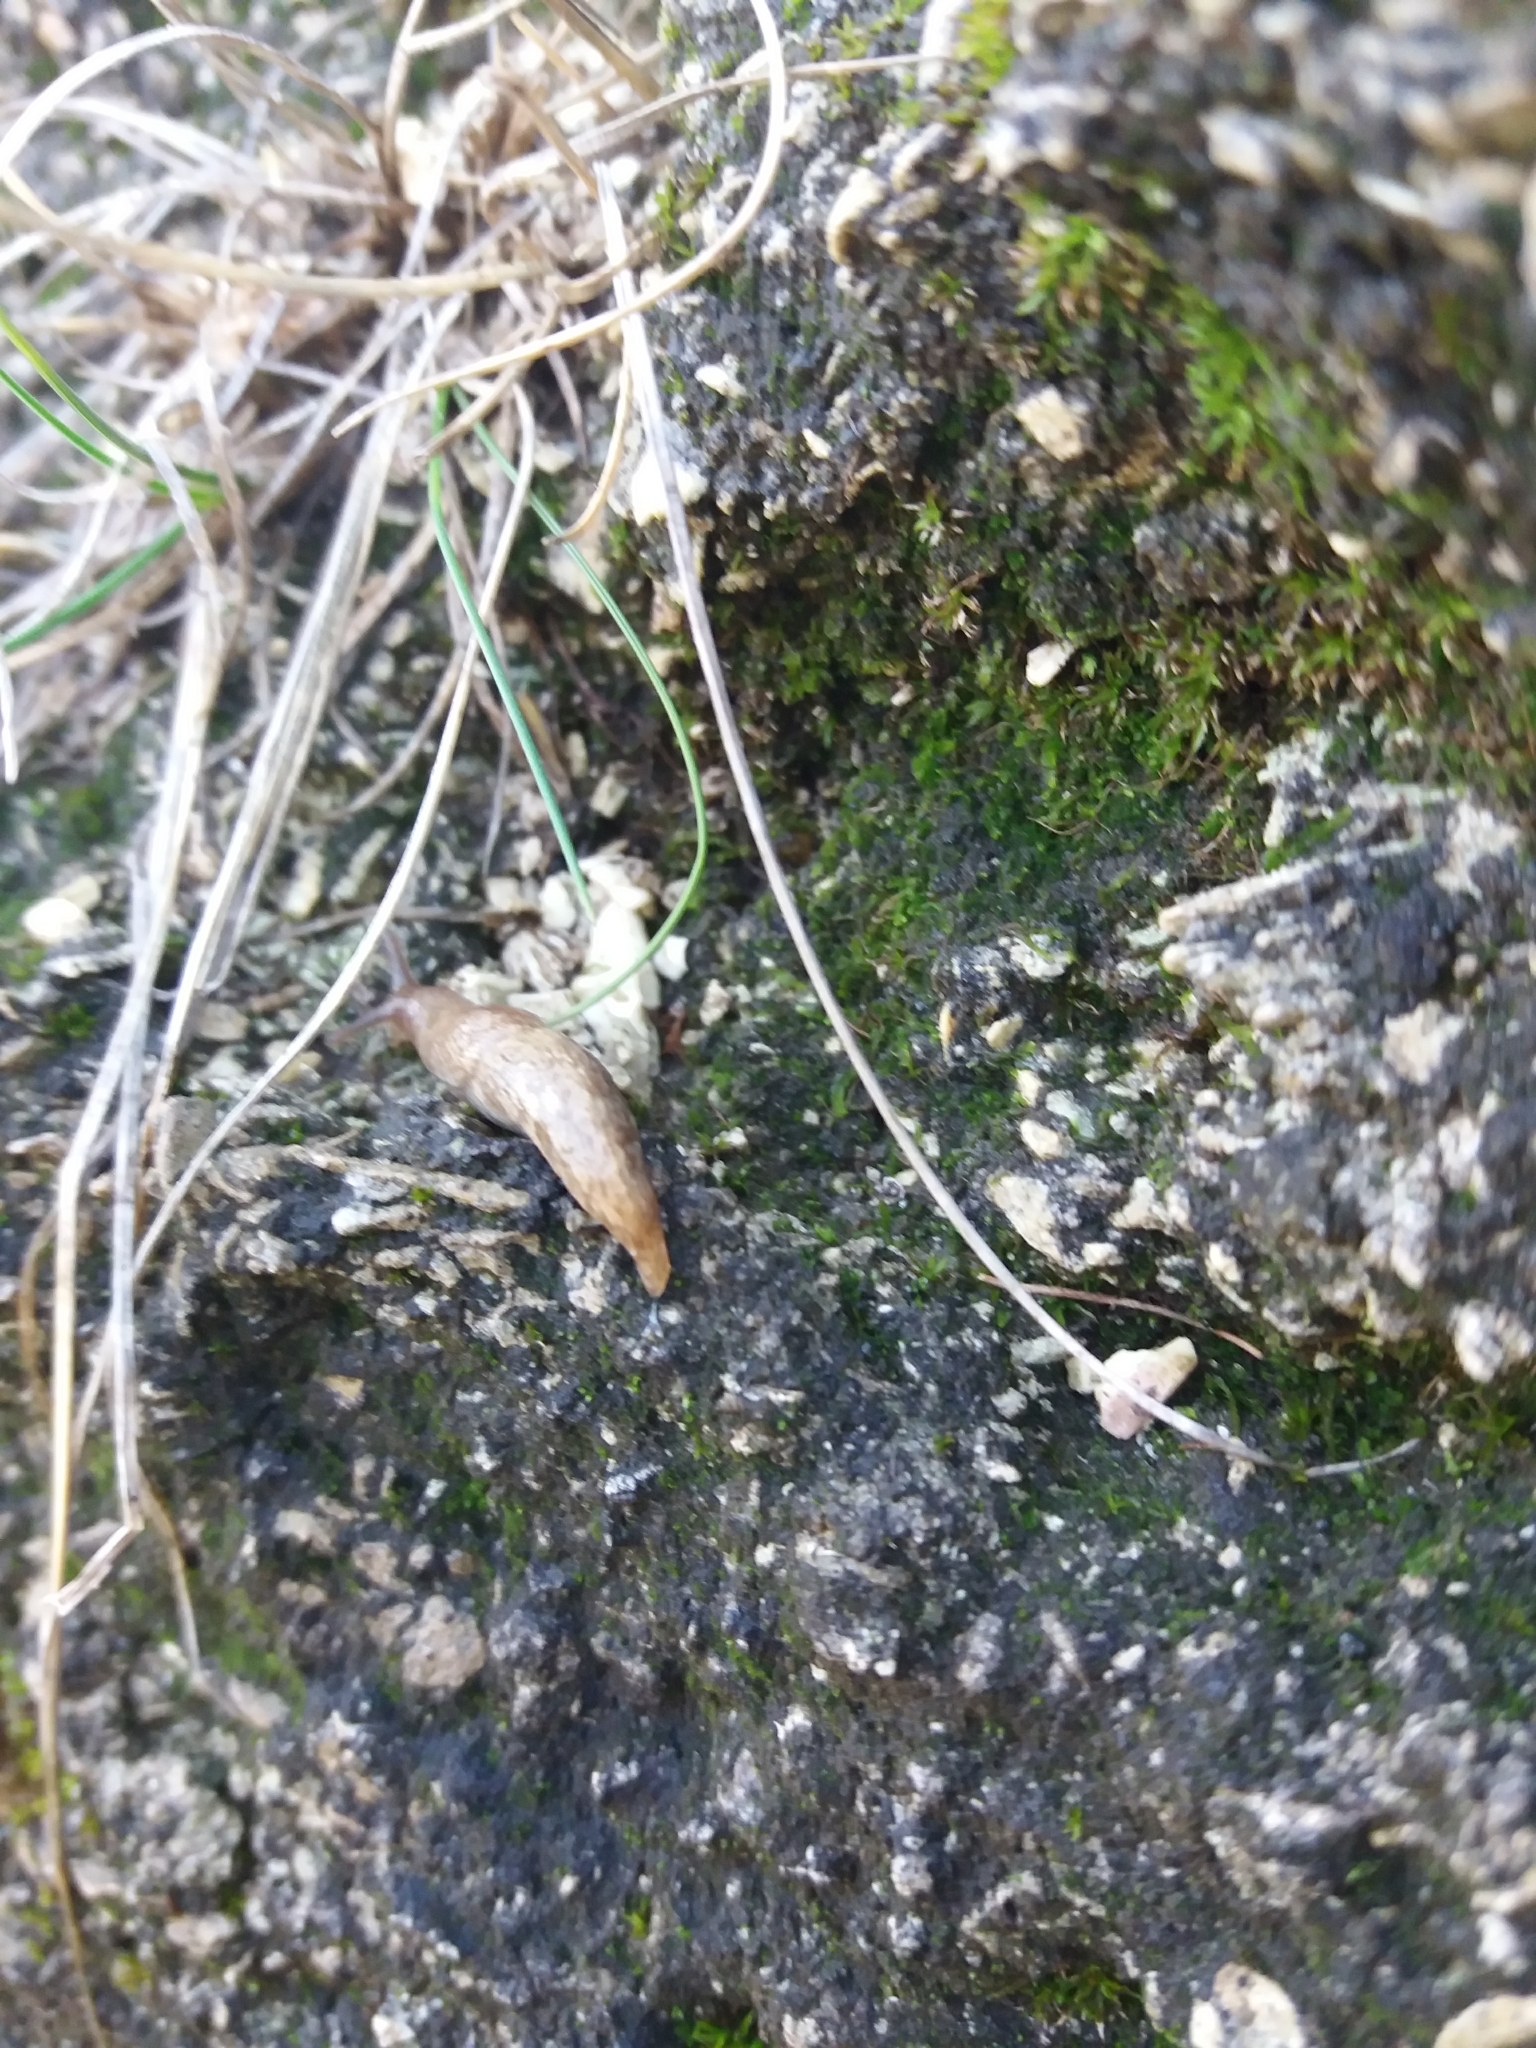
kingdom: Animalia
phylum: Mollusca
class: Gastropoda
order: Stylommatophora
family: Agriolimacidae
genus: Deroceras
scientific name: Deroceras reticulatum
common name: Gray field slug
